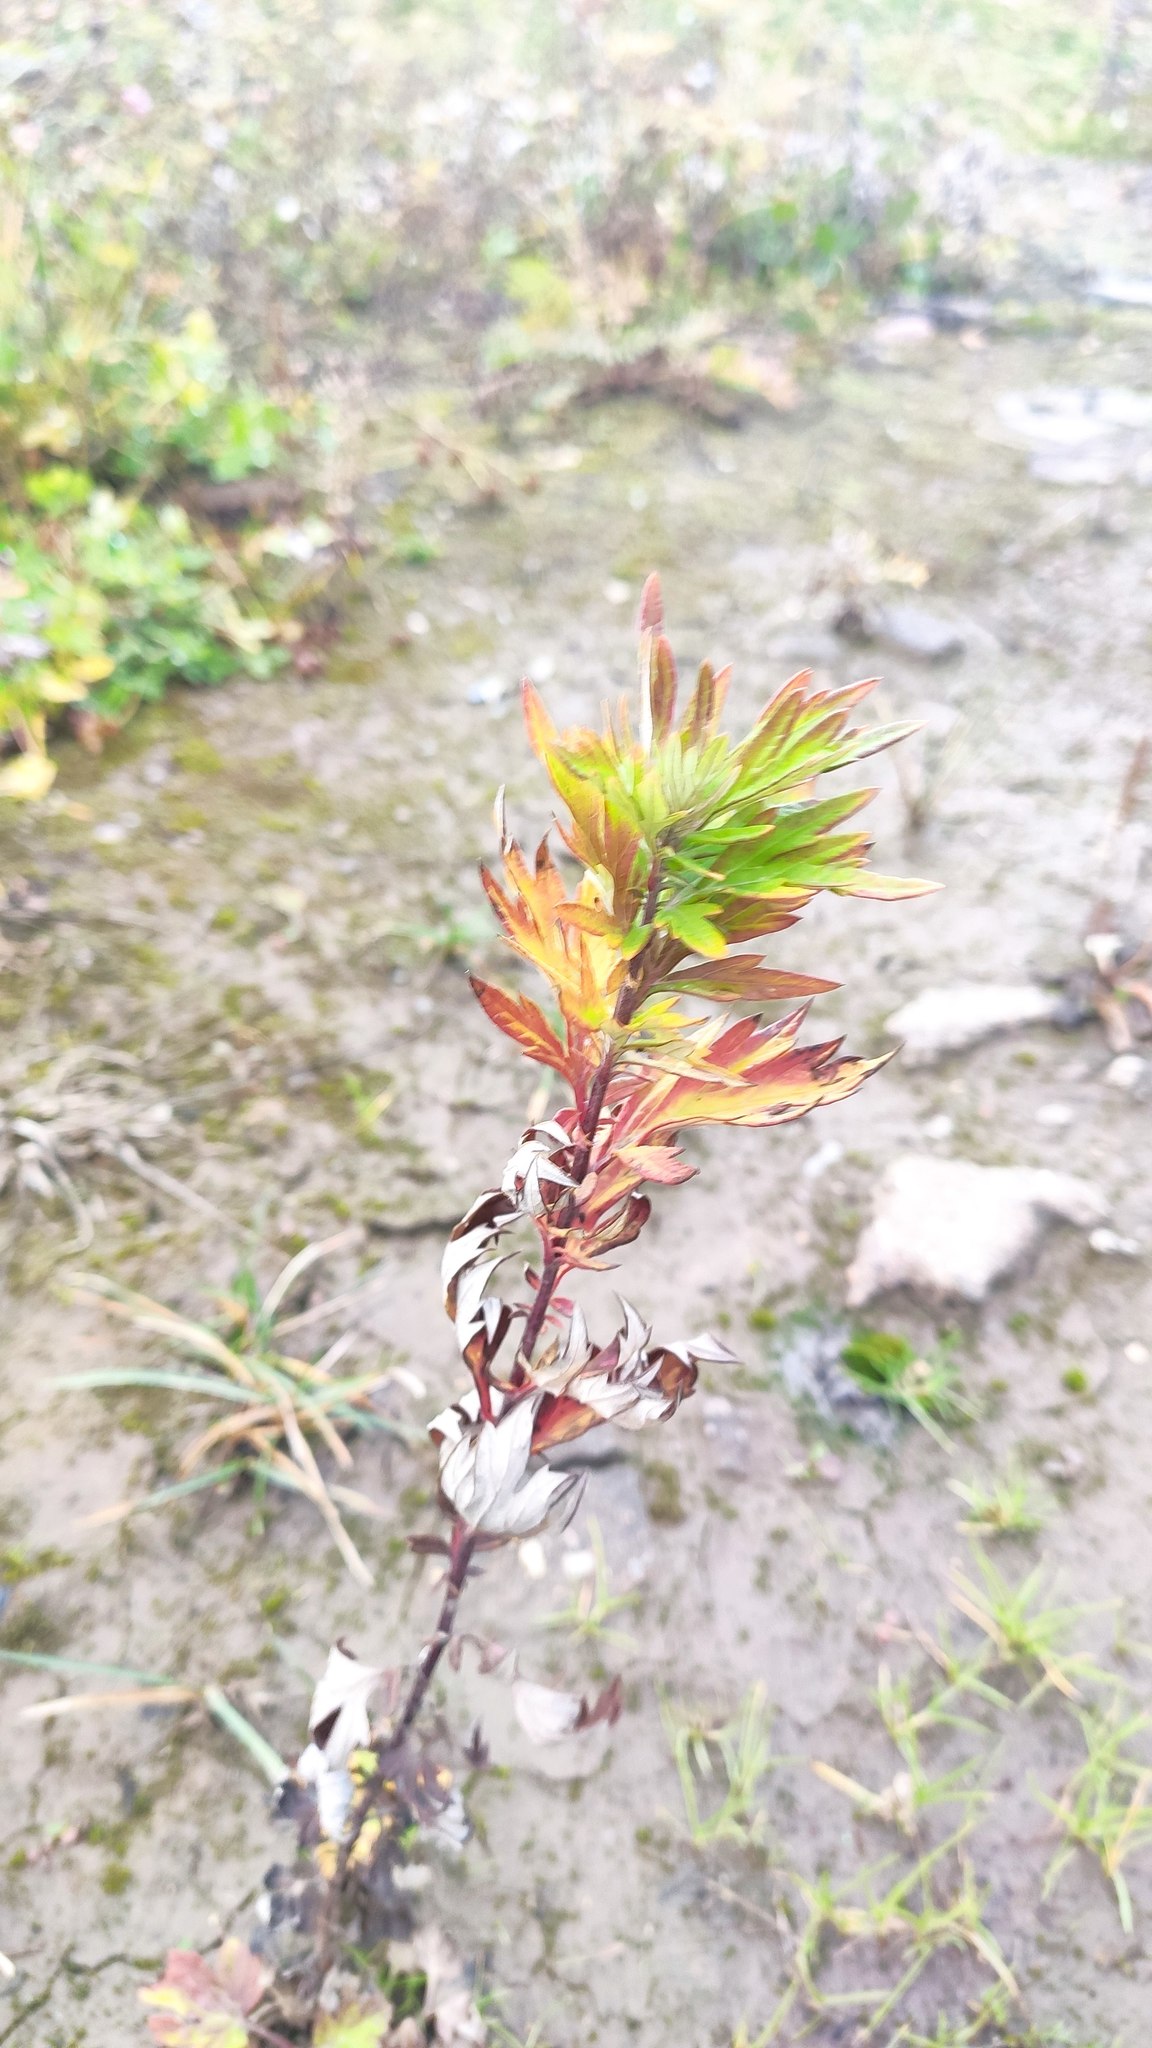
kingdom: Plantae
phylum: Tracheophyta
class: Magnoliopsida
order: Asterales
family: Asteraceae
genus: Artemisia
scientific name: Artemisia vulgaris
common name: Mugwort
